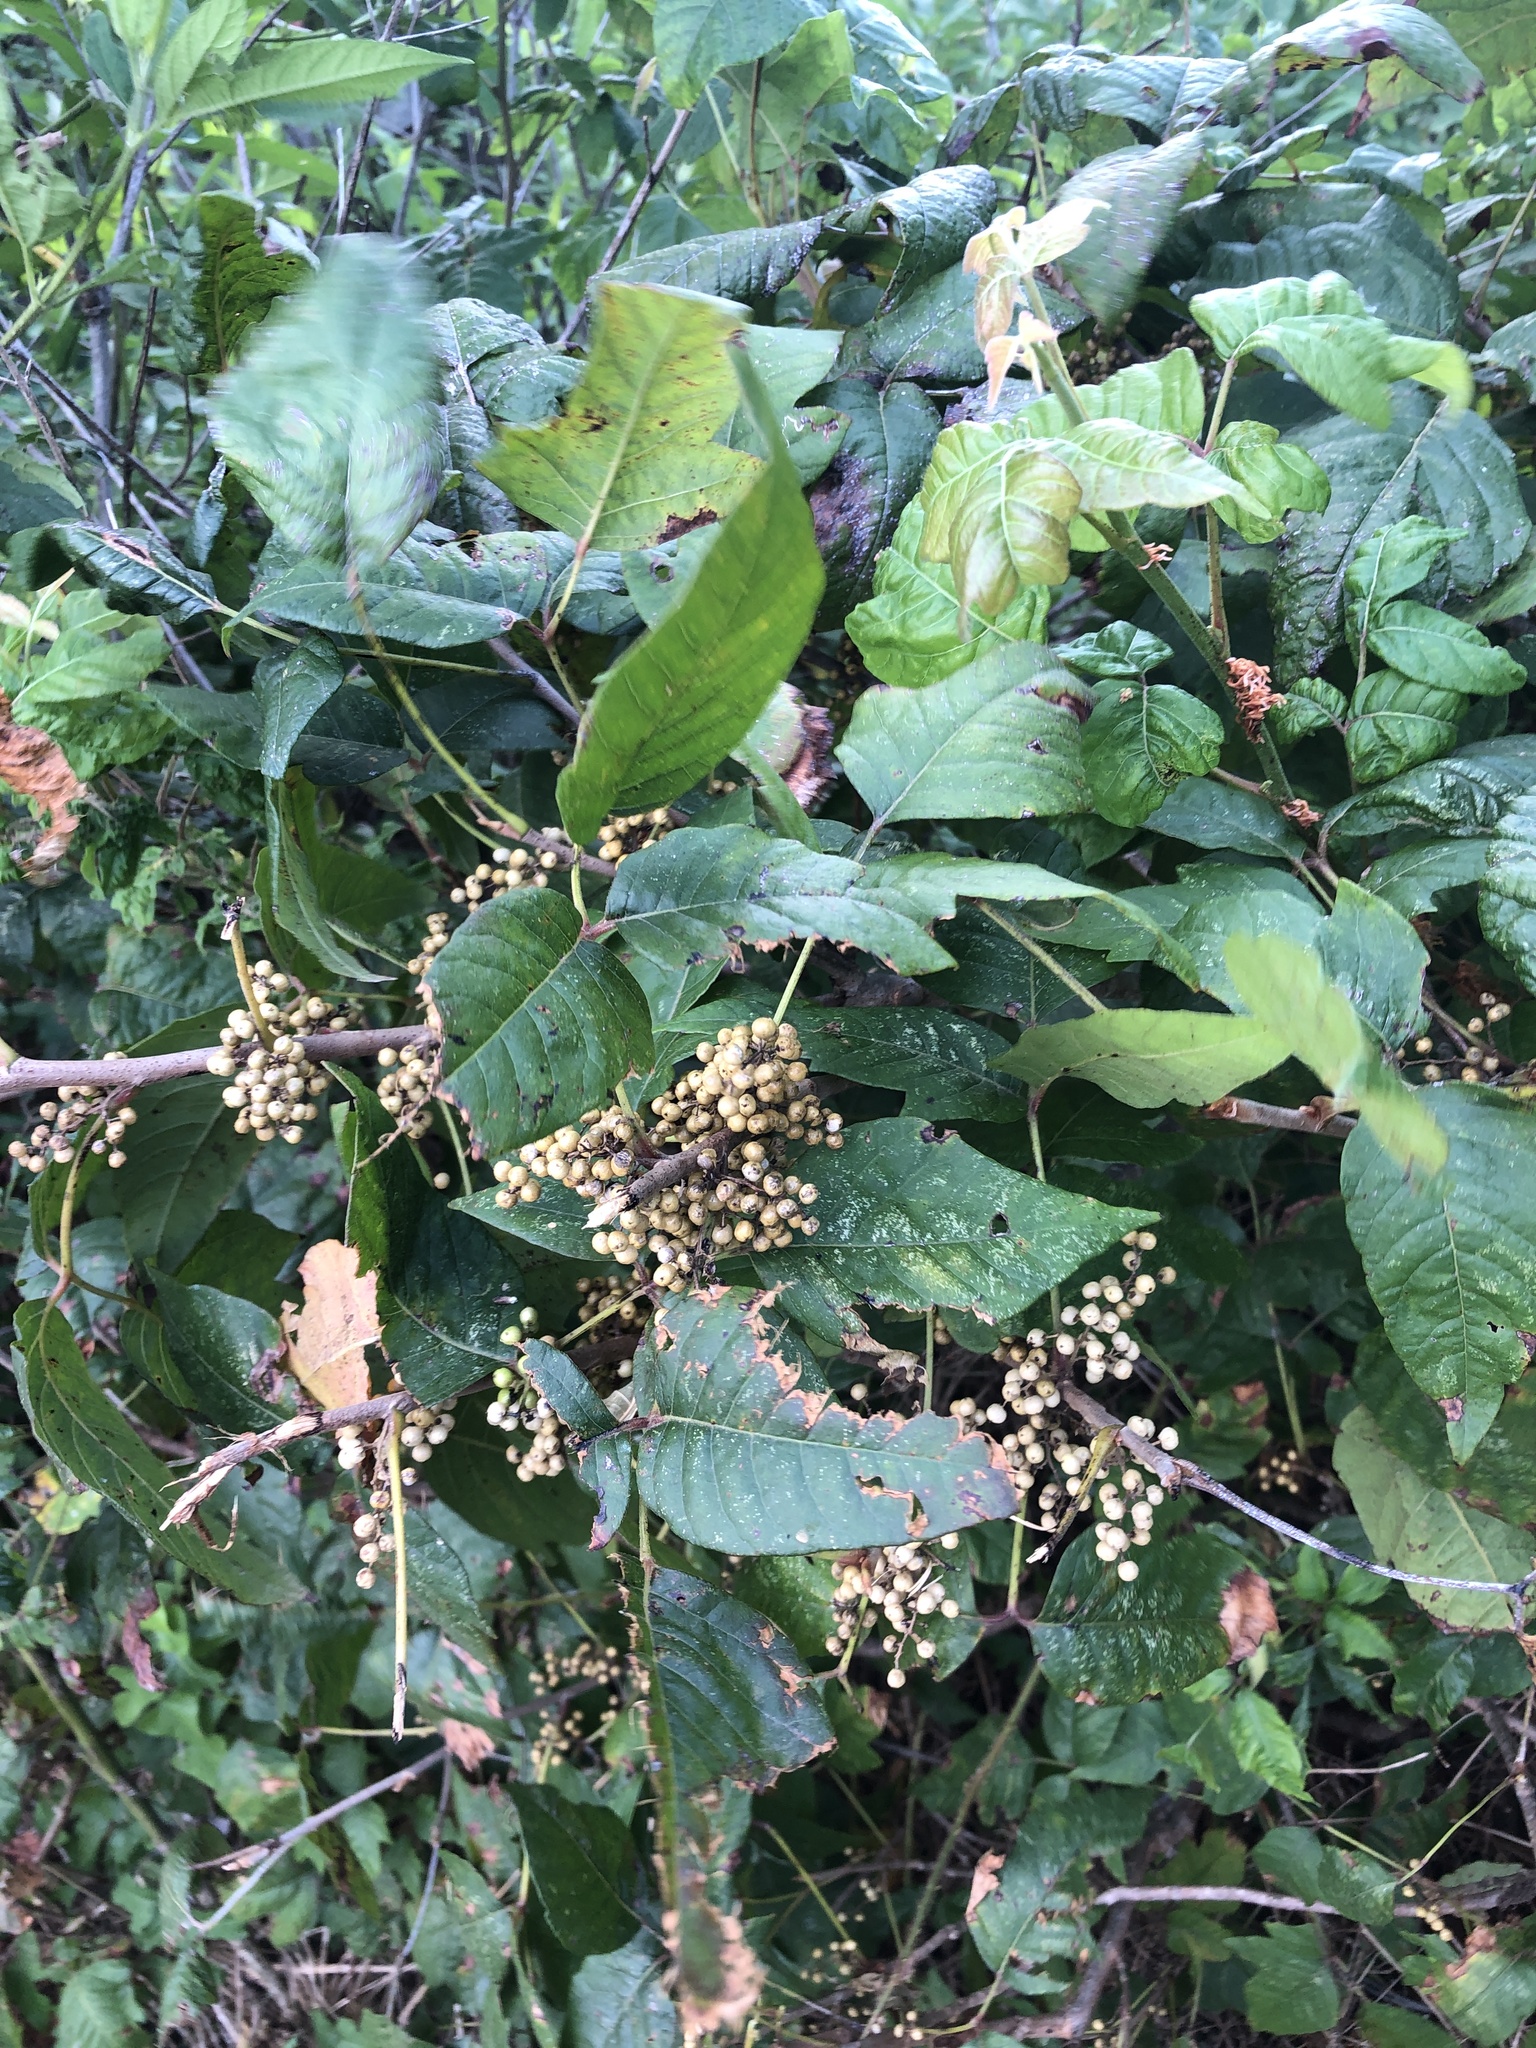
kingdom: Plantae
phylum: Tracheophyta
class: Magnoliopsida
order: Sapindales
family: Anacardiaceae
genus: Toxicodendron
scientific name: Toxicodendron radicans
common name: Poison ivy
